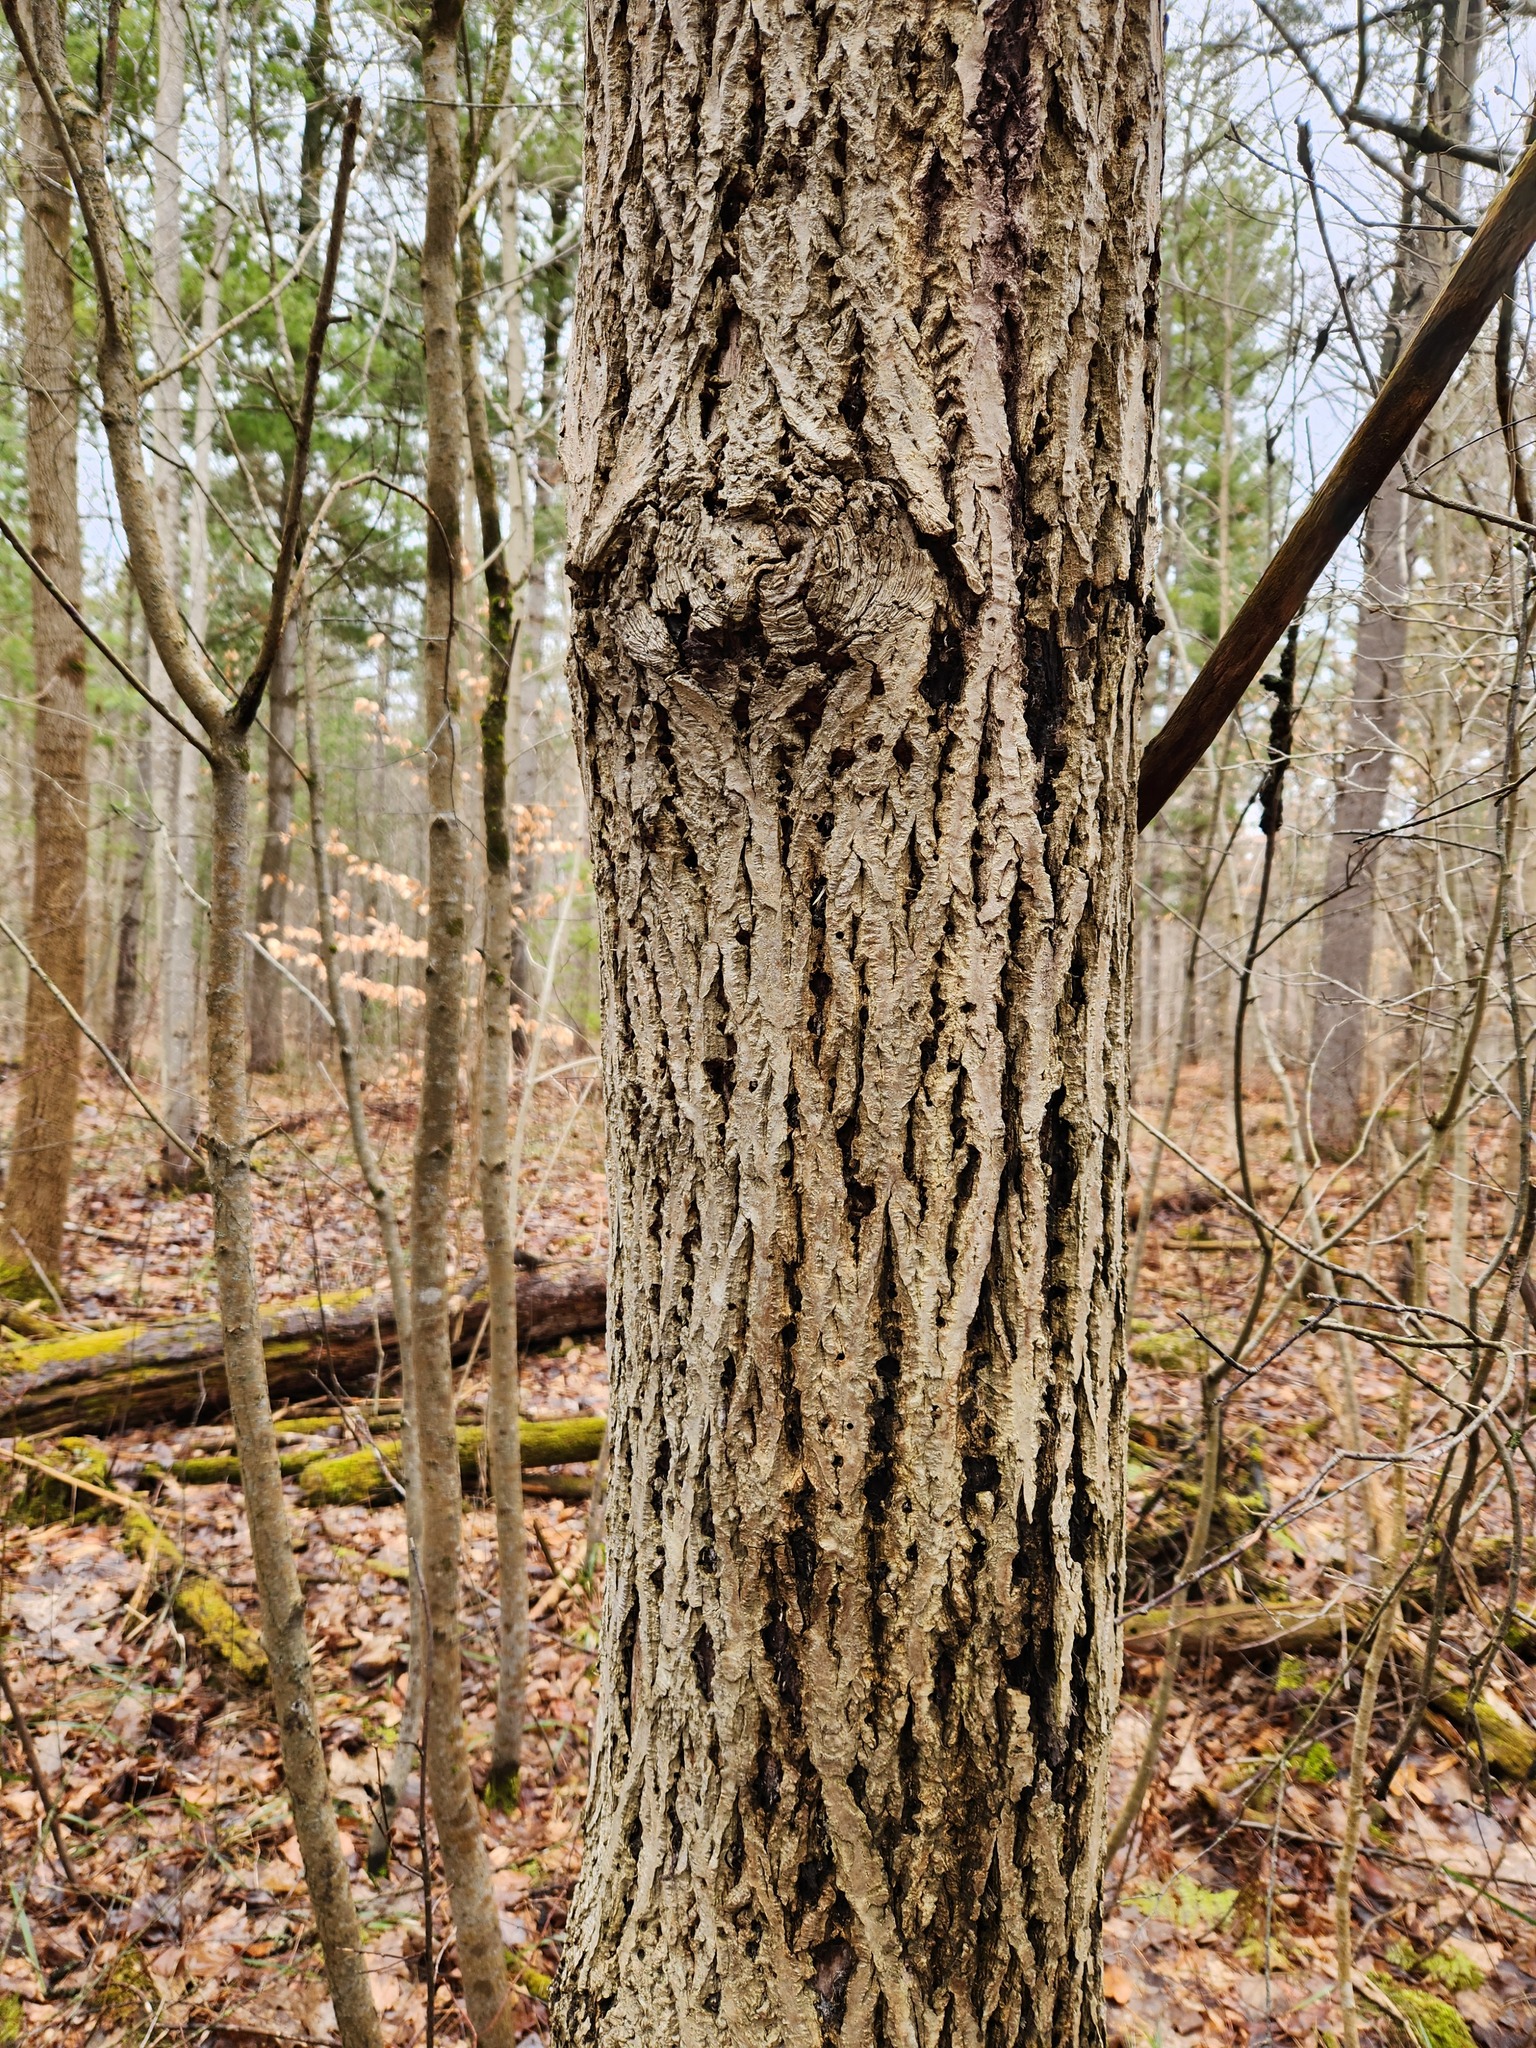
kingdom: Plantae
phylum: Tracheophyta
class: Magnoliopsida
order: Fagales
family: Juglandaceae
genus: Juglans
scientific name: Juglans cinerea
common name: Butternut
